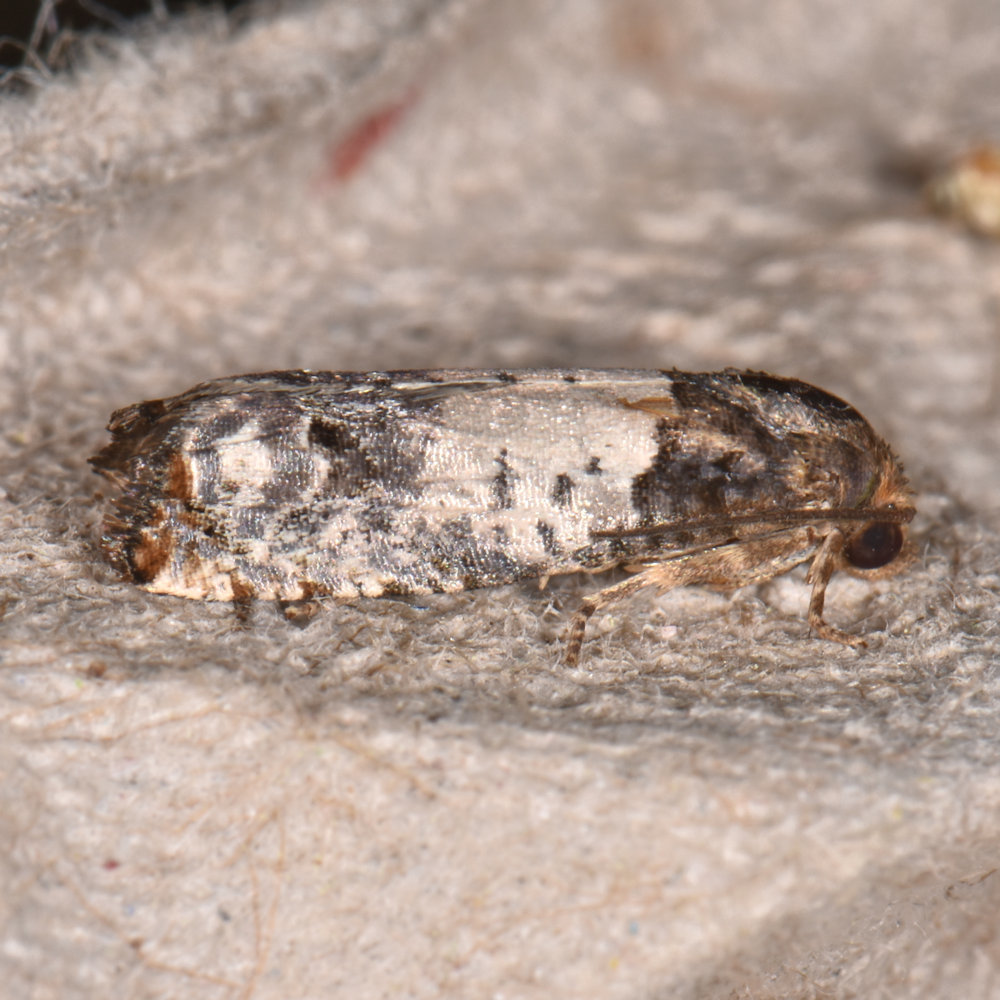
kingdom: Animalia
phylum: Arthropoda
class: Insecta
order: Lepidoptera
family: Tortricidae
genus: Epiblema
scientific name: Epiblema scudderiana
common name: Goldenrod gall moth
